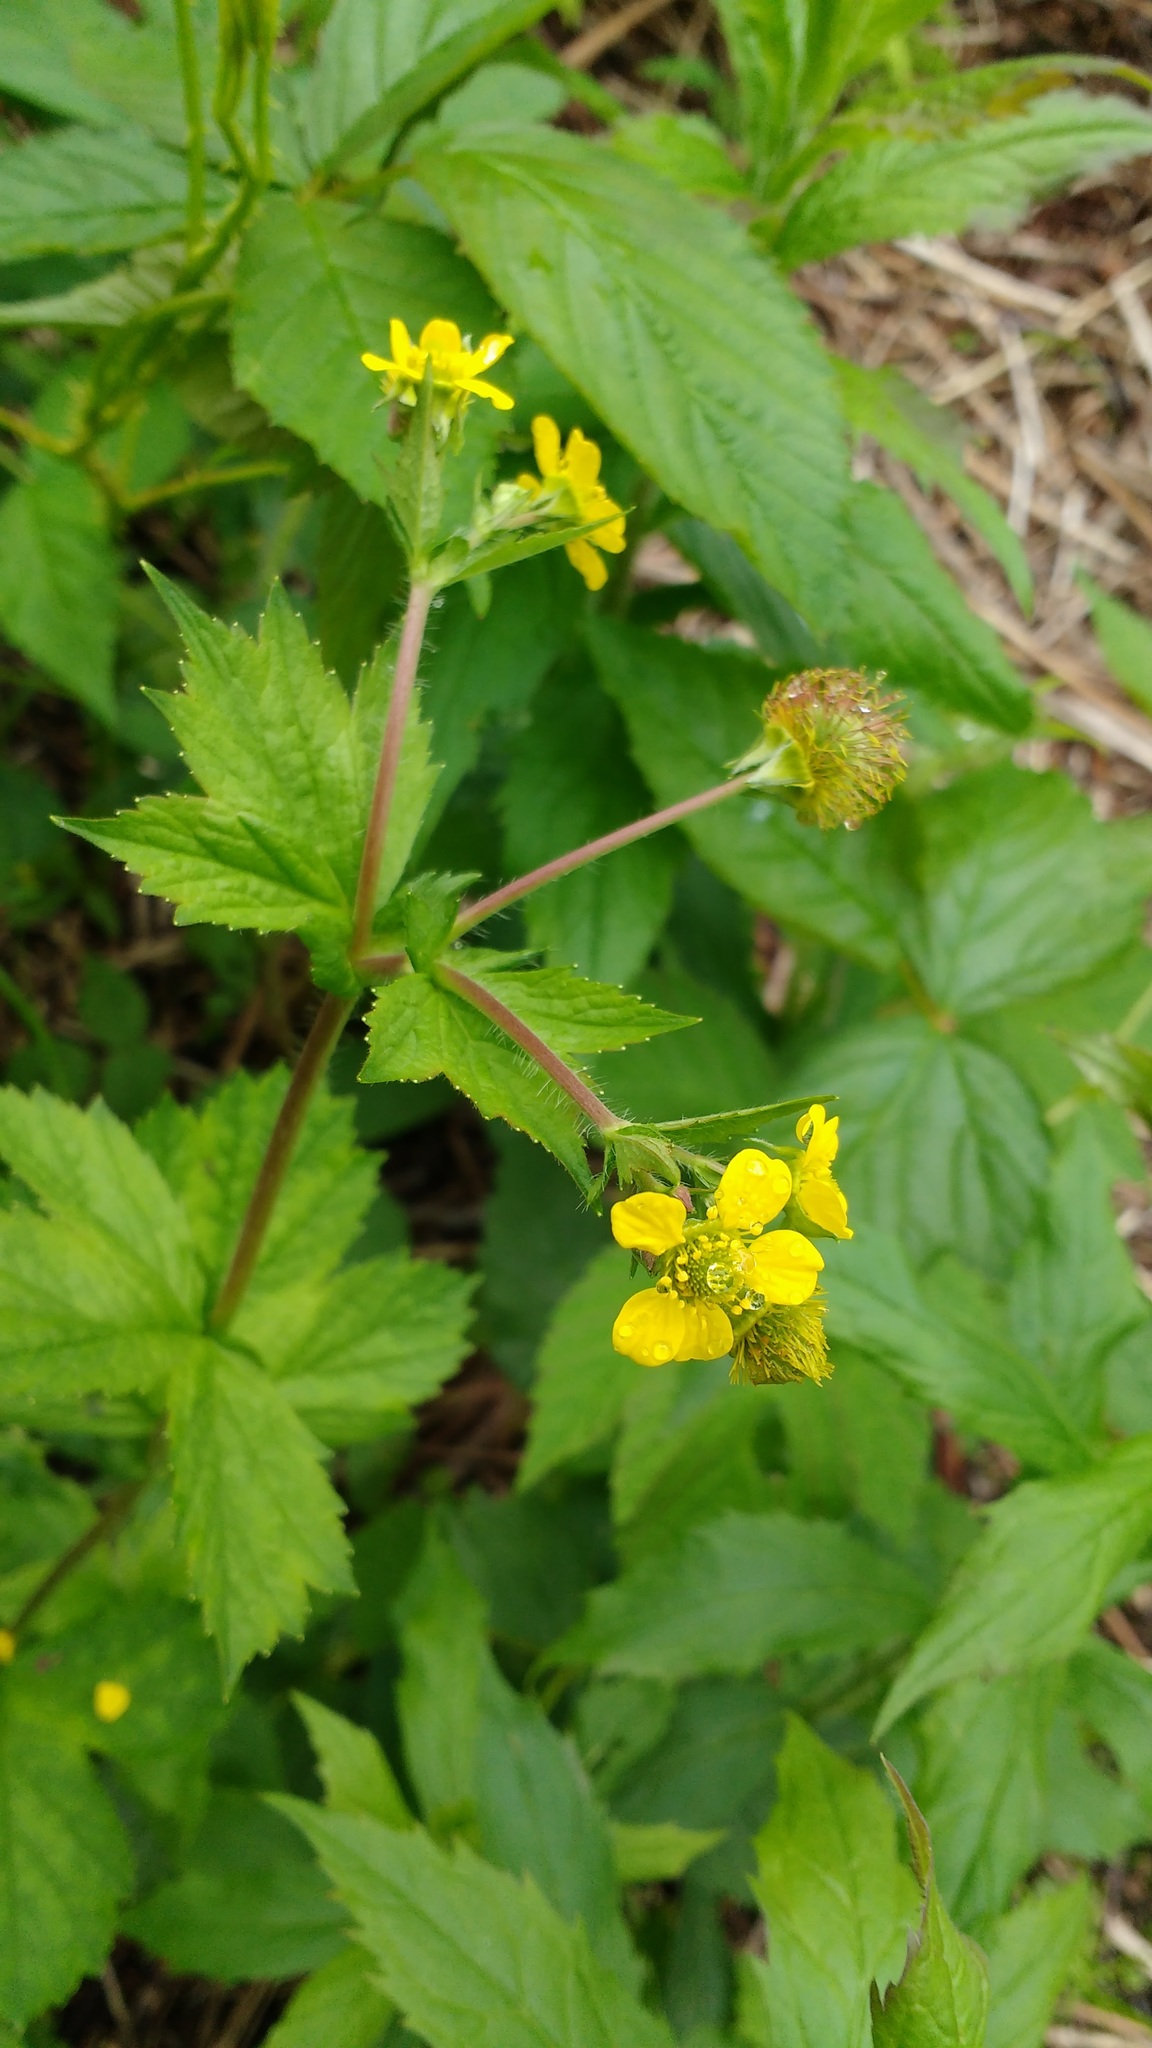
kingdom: Plantae
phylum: Tracheophyta
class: Magnoliopsida
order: Rosales
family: Rosaceae
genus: Geum
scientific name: Geum macrophyllum
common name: Large-leaved avens
